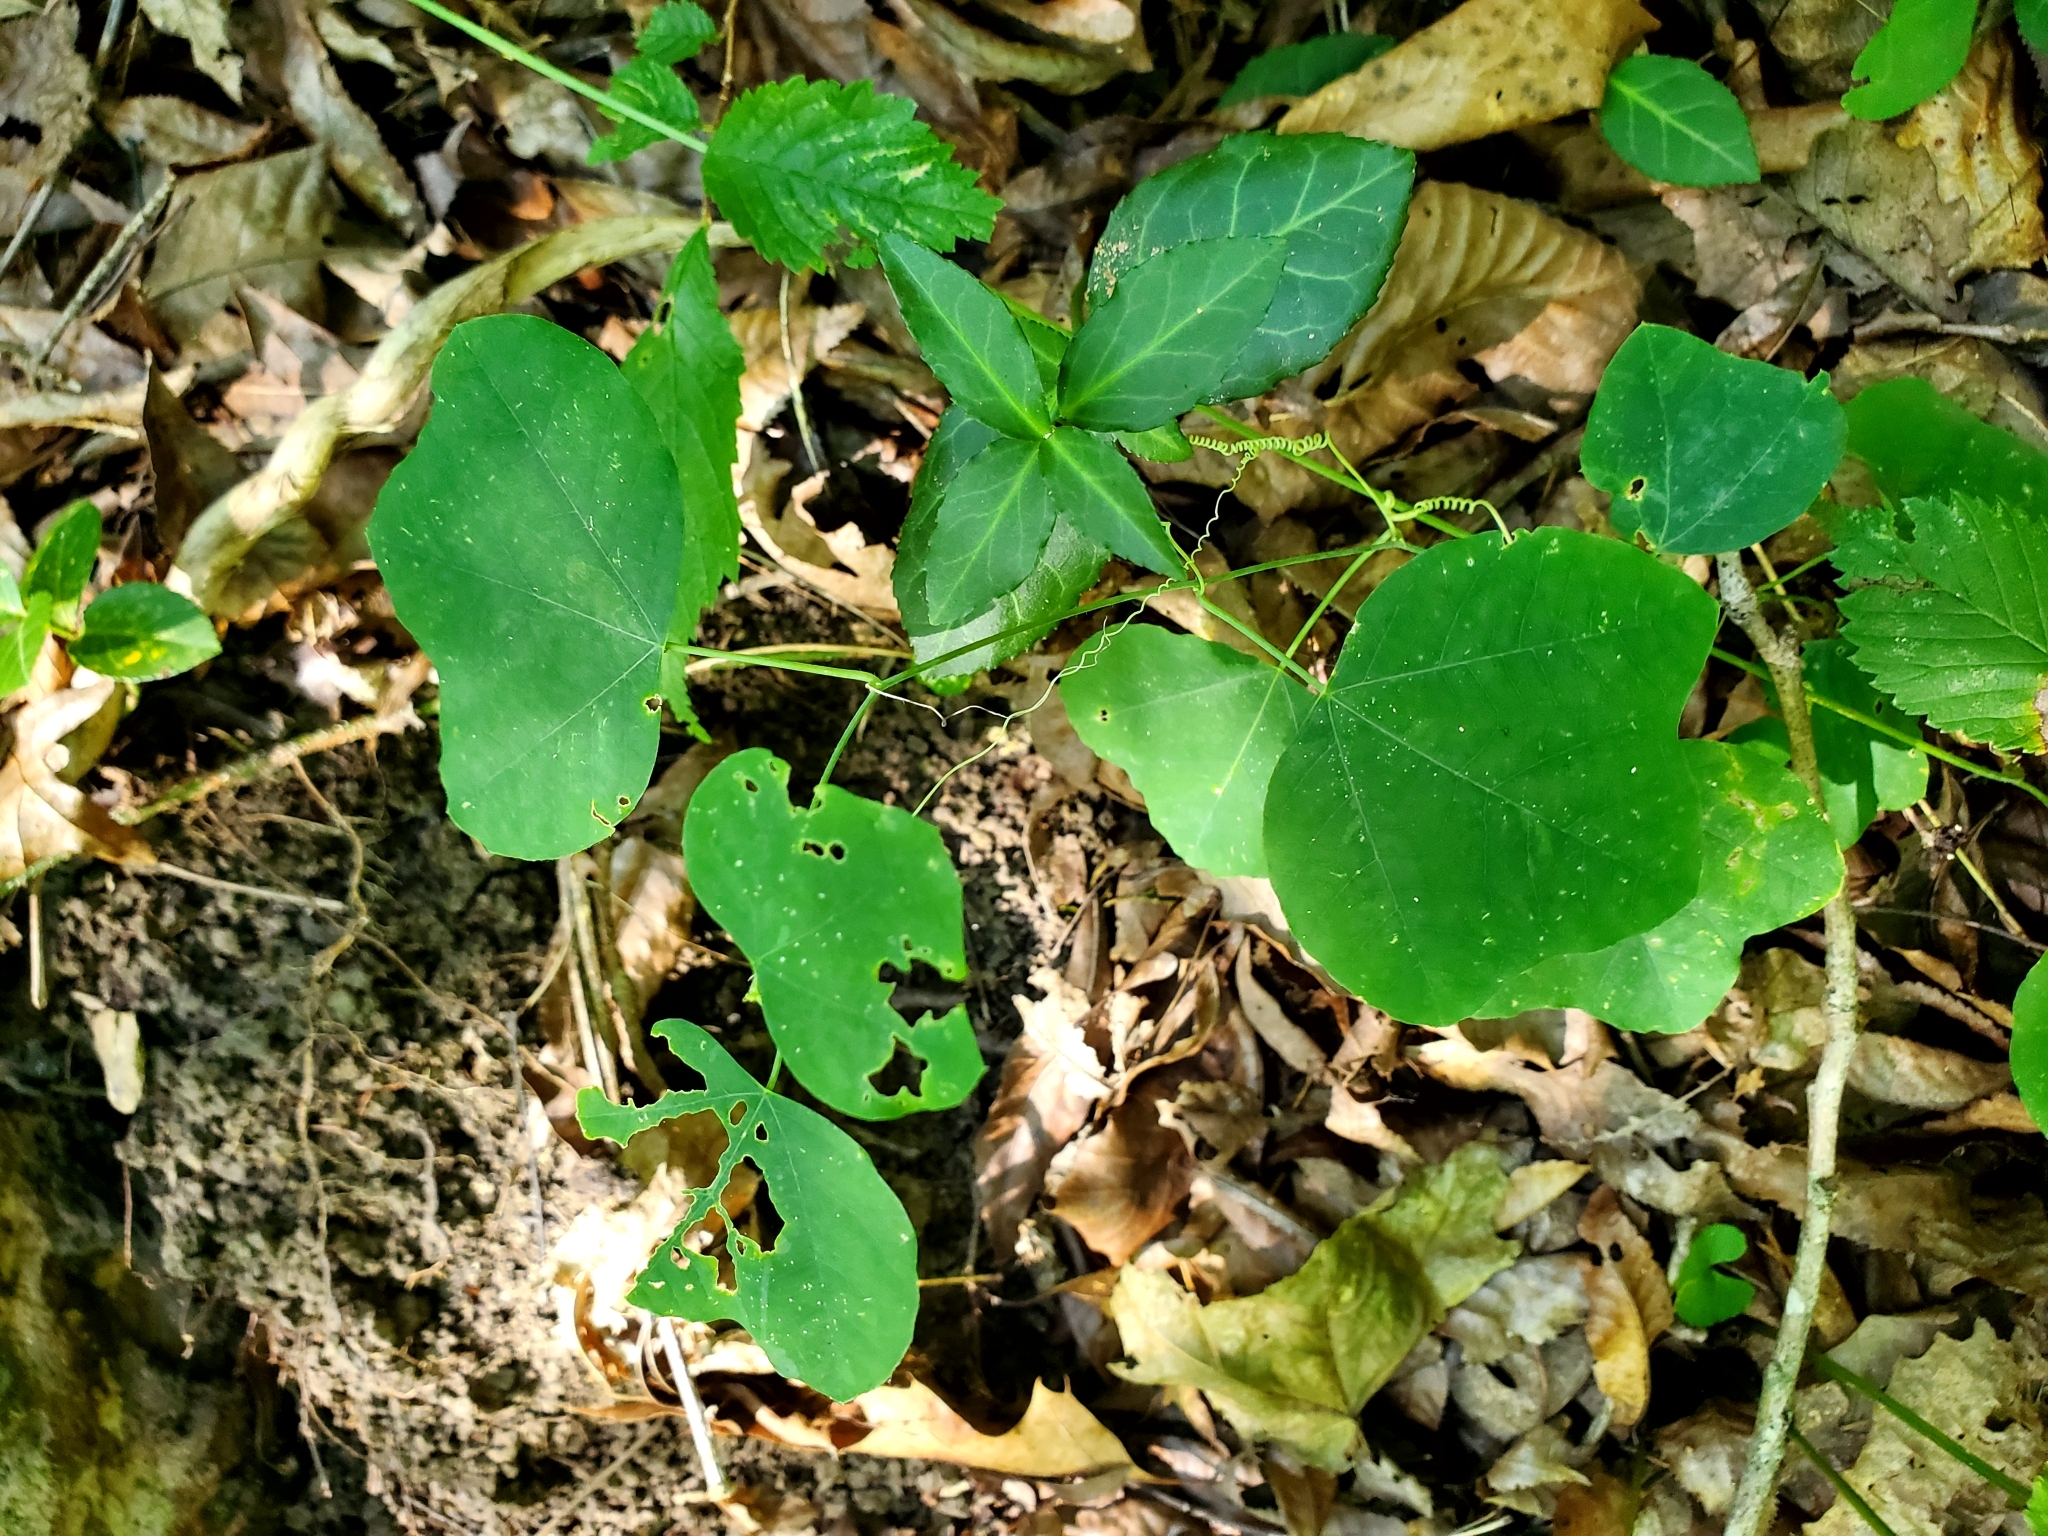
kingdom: Plantae
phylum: Tracheophyta
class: Magnoliopsida
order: Malpighiales
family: Passifloraceae
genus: Passiflora
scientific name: Passiflora lutea
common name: Yellow passionflower
